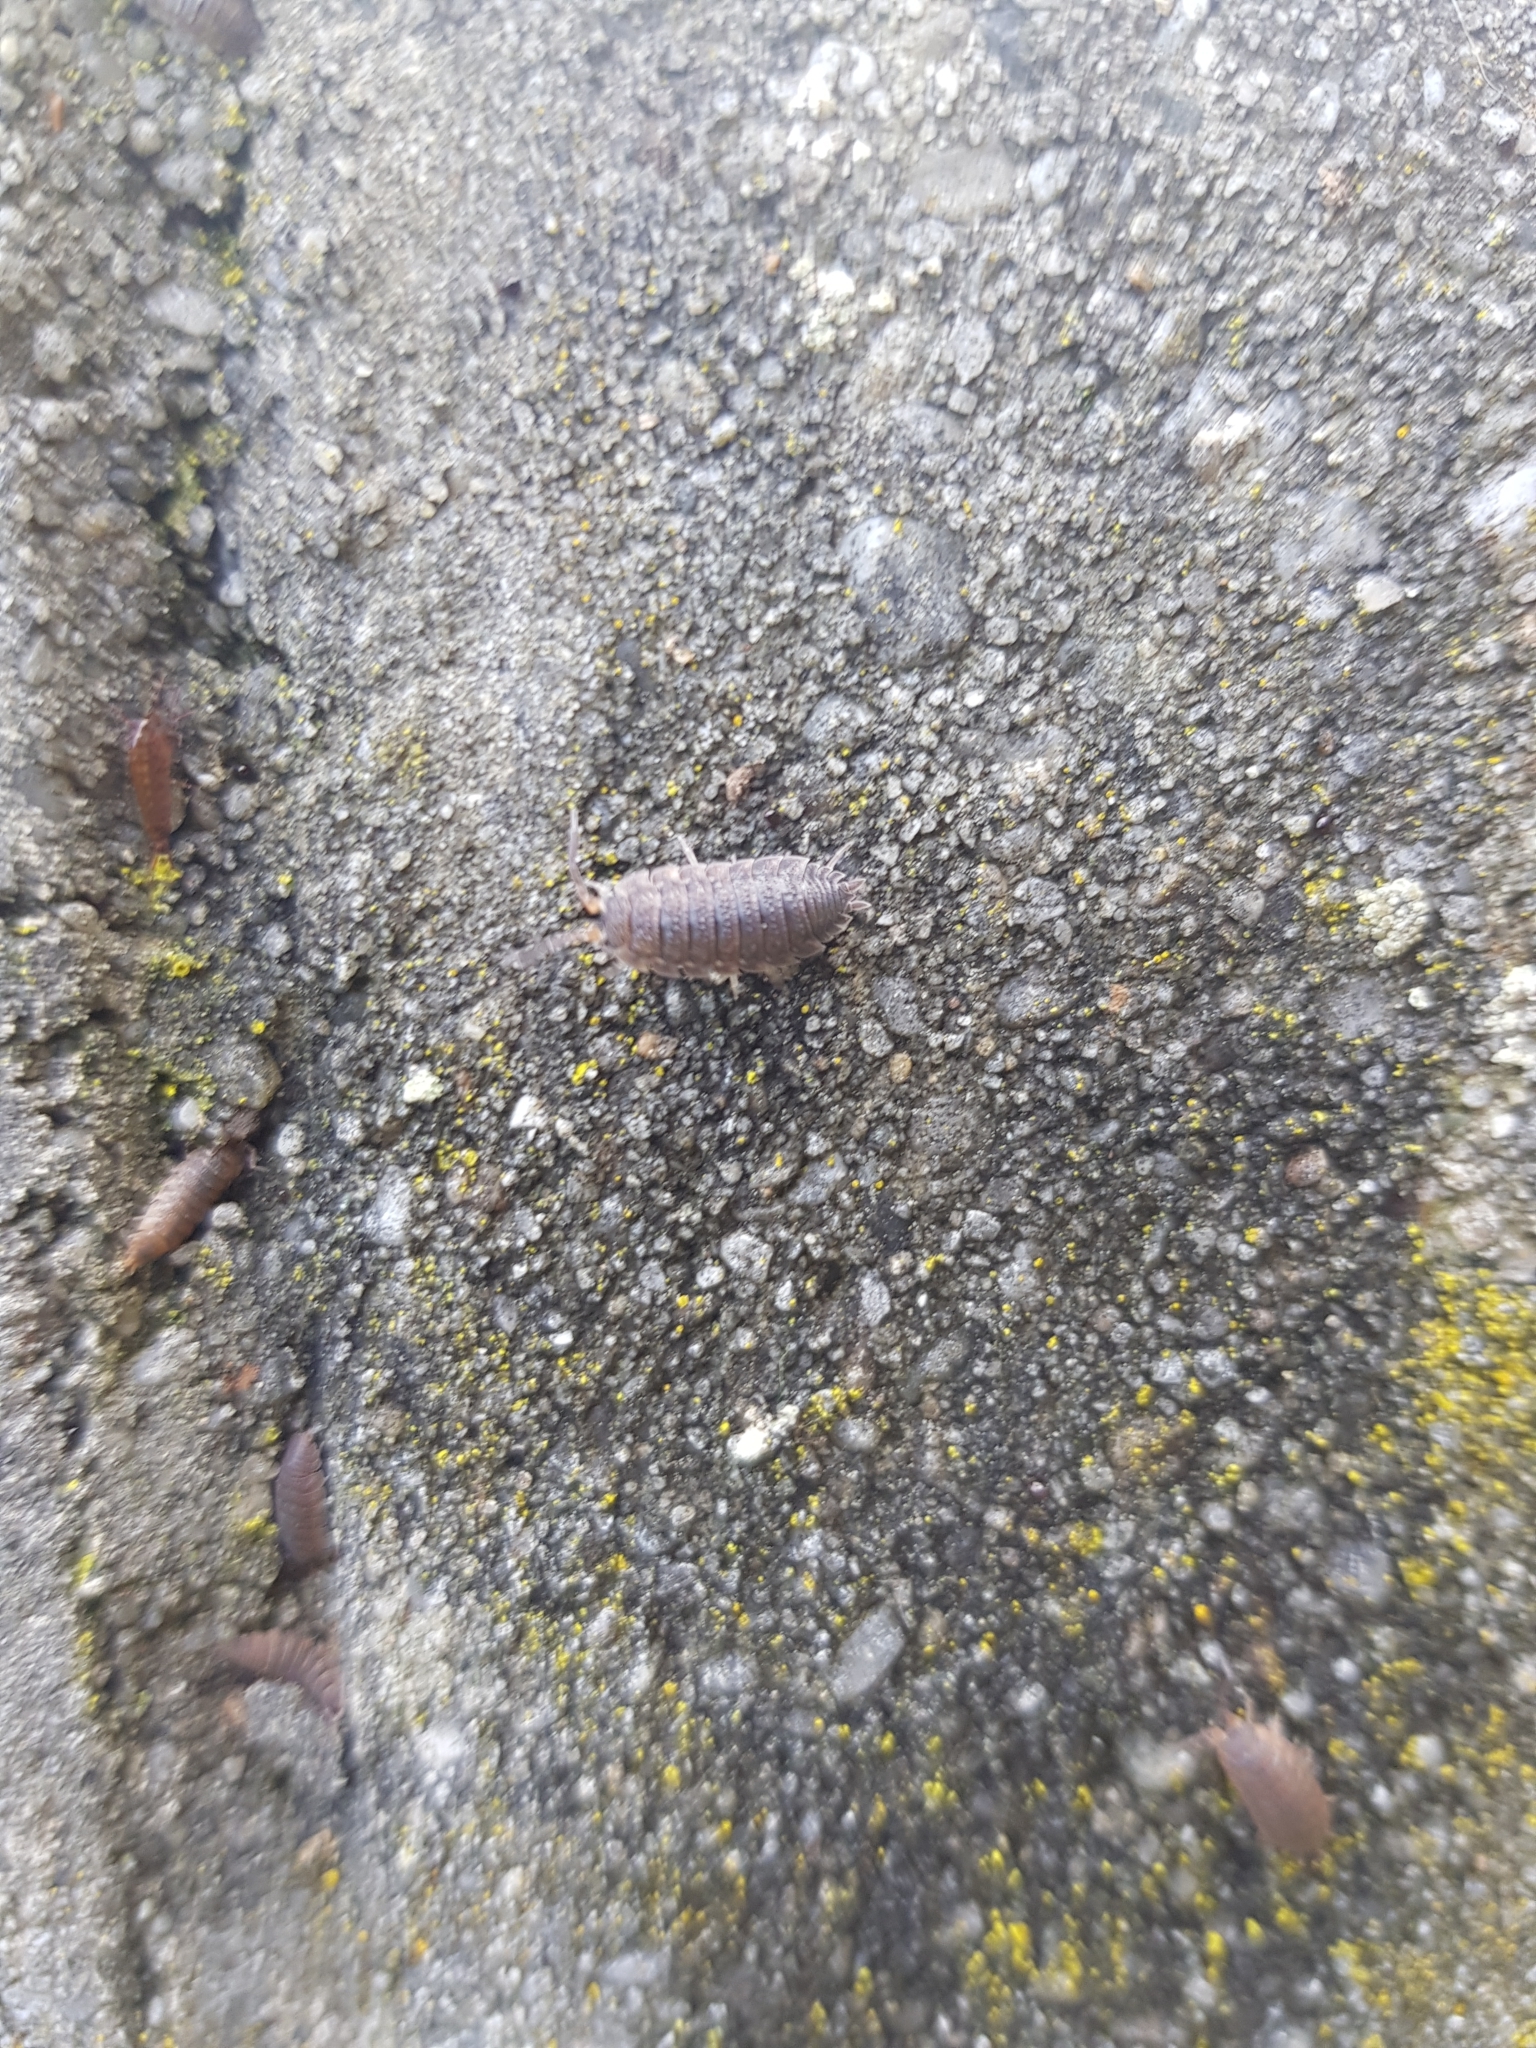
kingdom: Animalia
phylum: Arthropoda
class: Malacostraca
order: Isopoda
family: Porcellionidae
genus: Porcellio
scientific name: Porcellio scaber
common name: Common rough woodlouse
